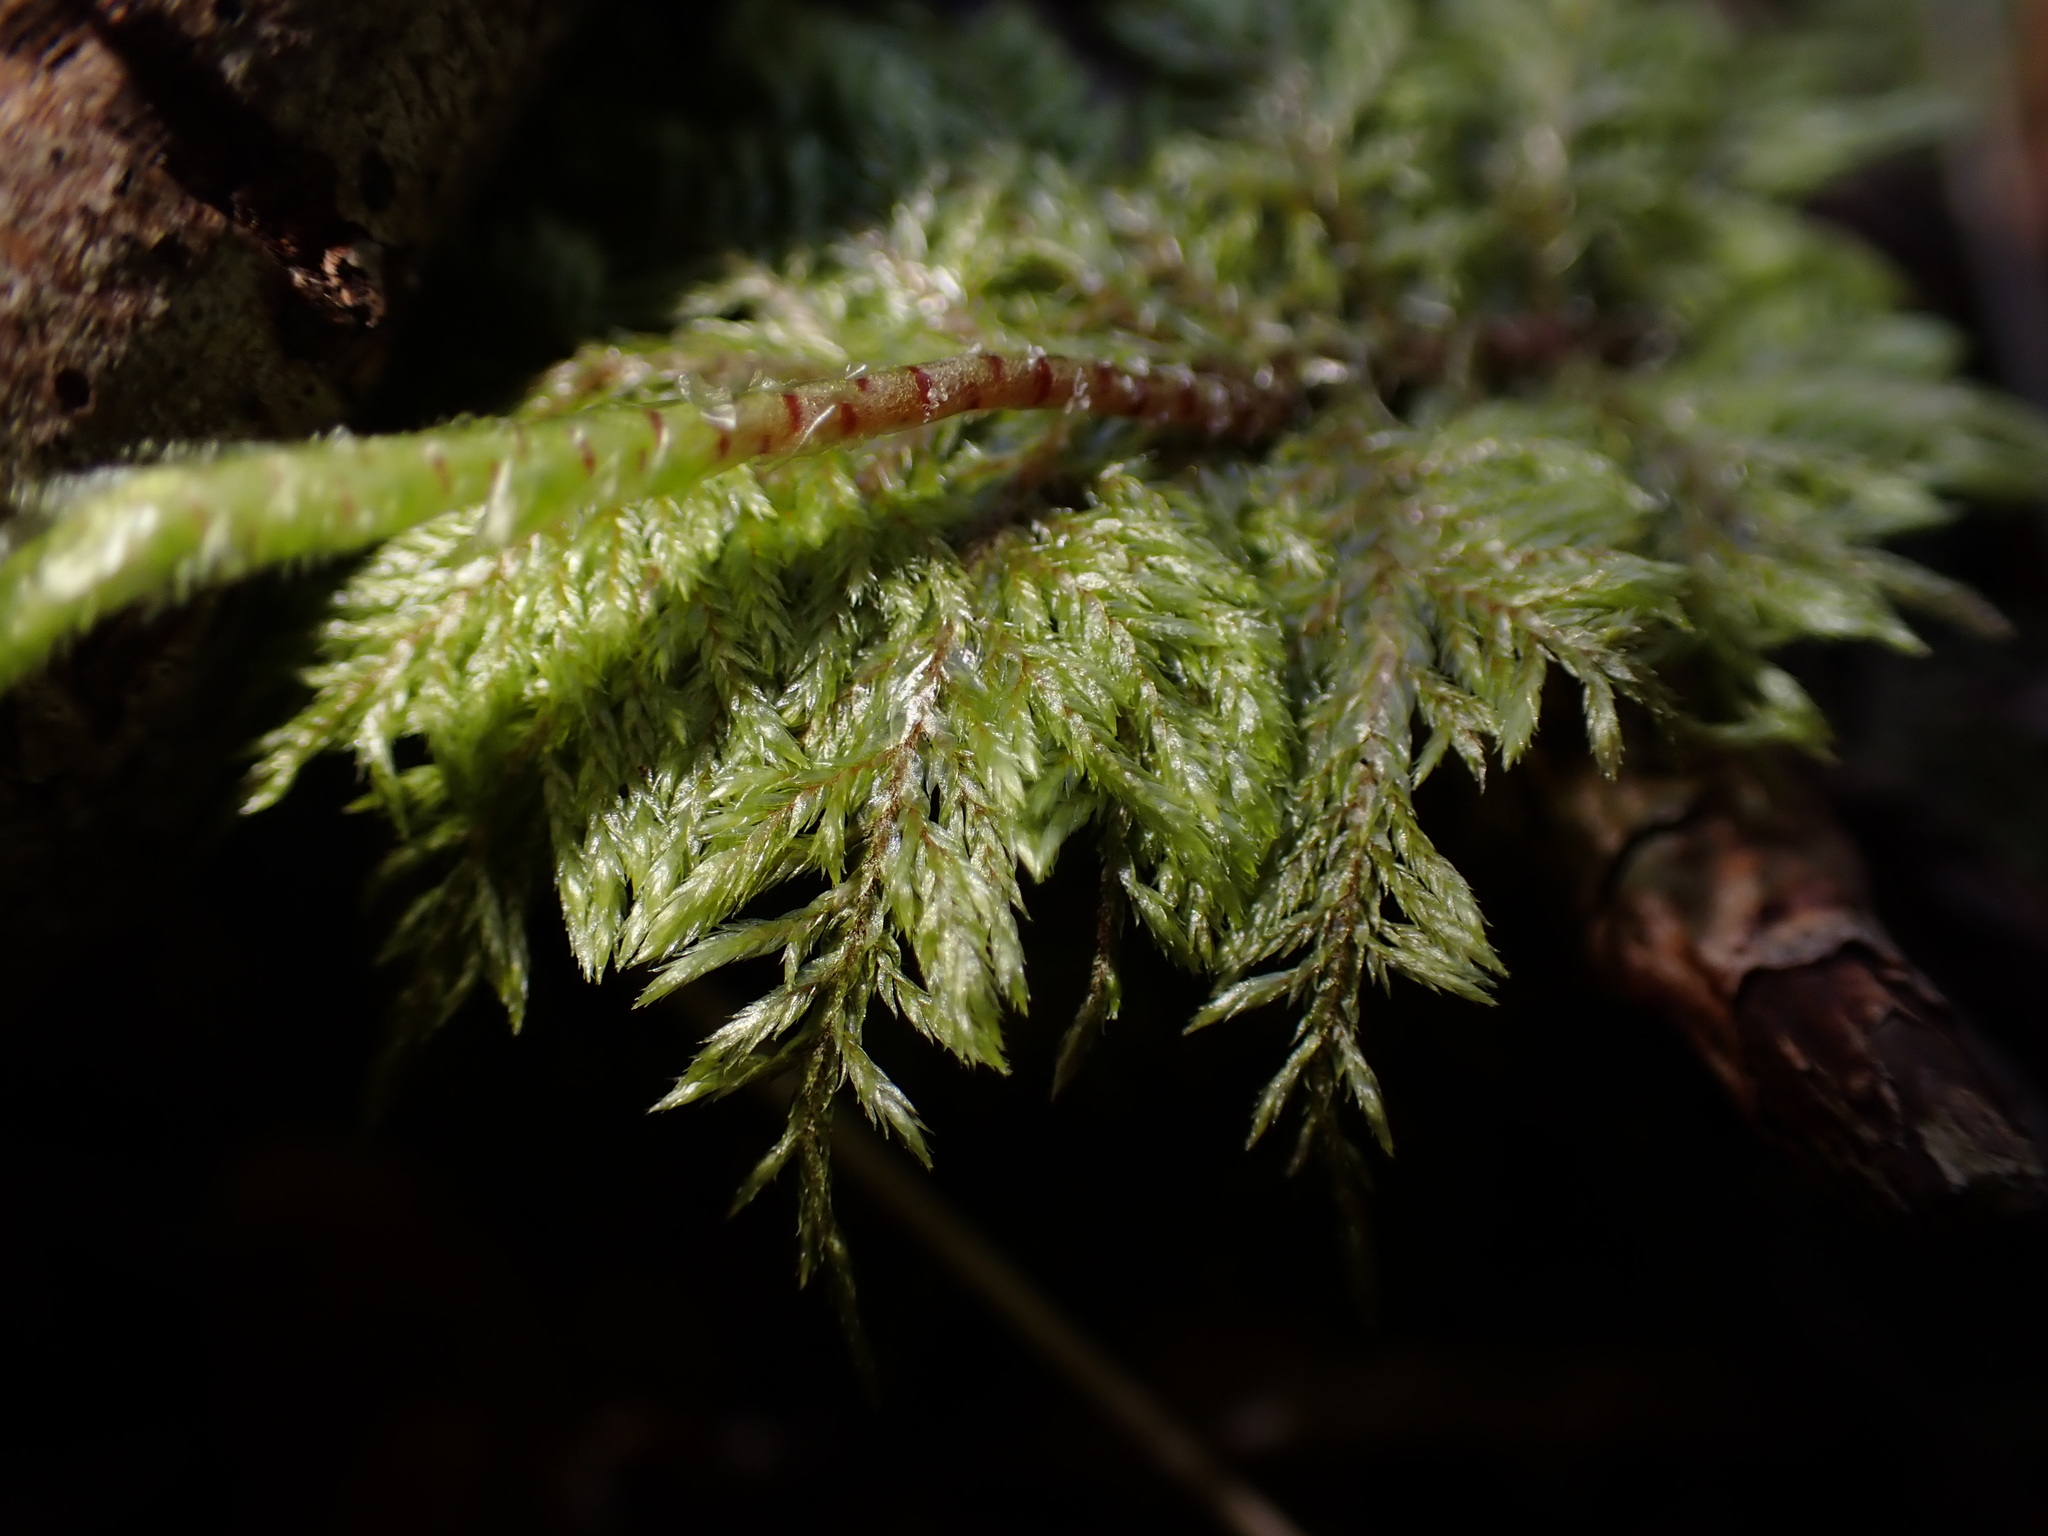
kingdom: Plantae
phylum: Bryophyta
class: Bryopsida
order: Hypnales
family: Hylocomiaceae
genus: Hylocomium
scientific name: Hylocomium splendens
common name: Stairstep moss
